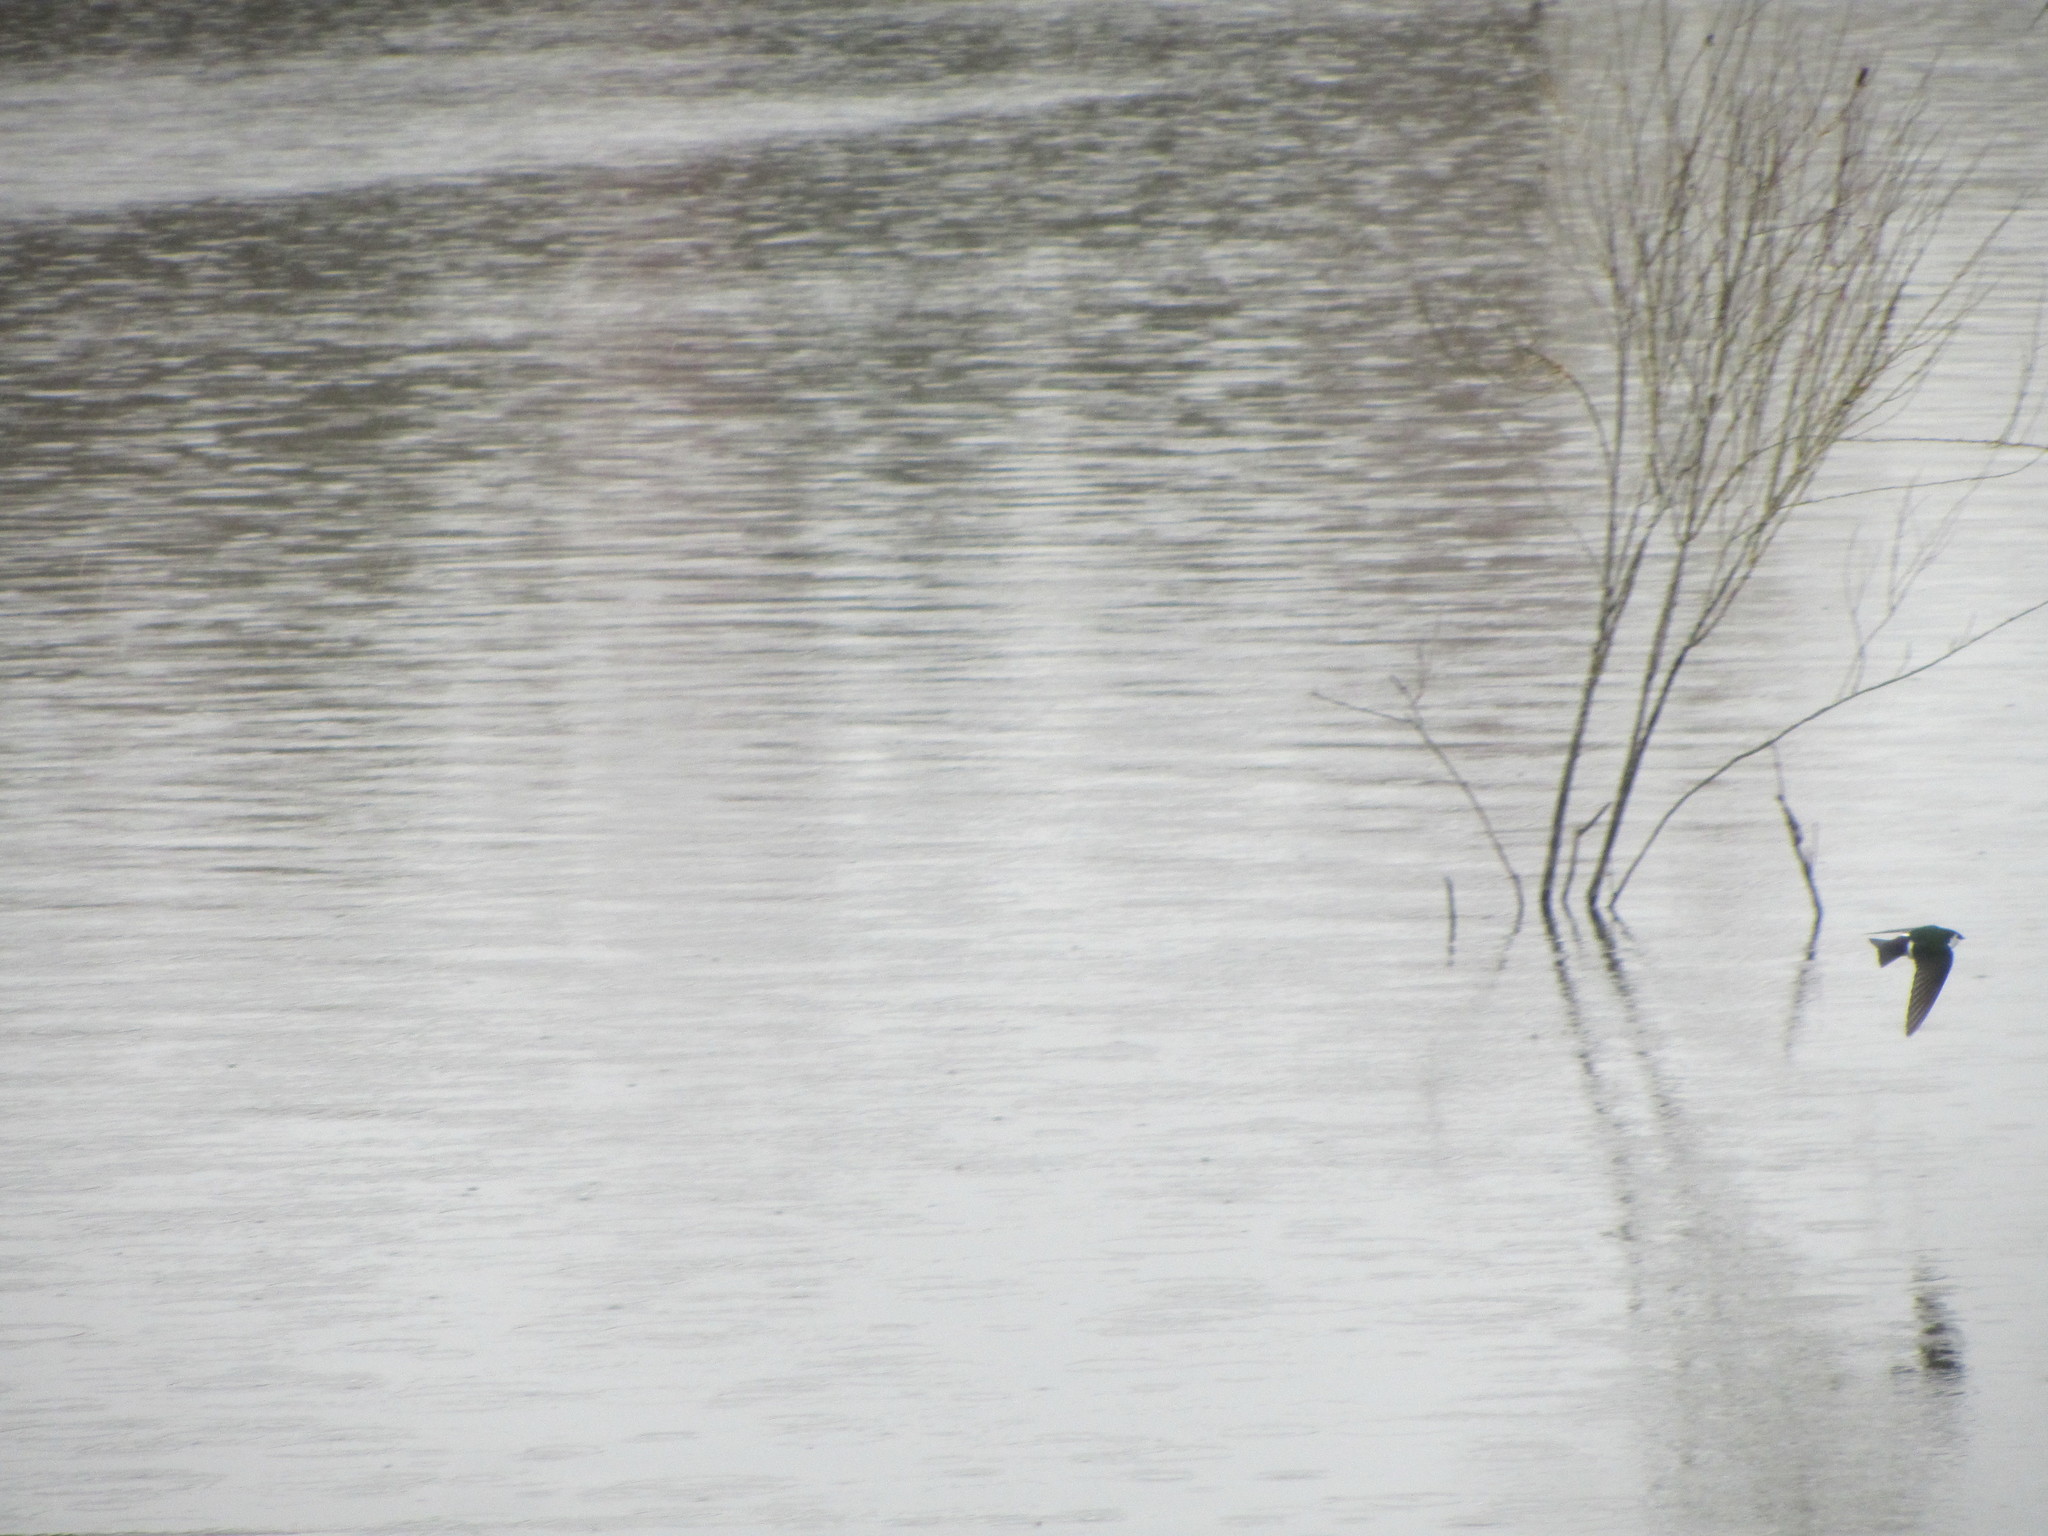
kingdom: Animalia
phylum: Chordata
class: Aves
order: Passeriformes
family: Hirundinidae
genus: Tachycineta
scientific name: Tachycineta thalassina
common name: Violet-green swallow
